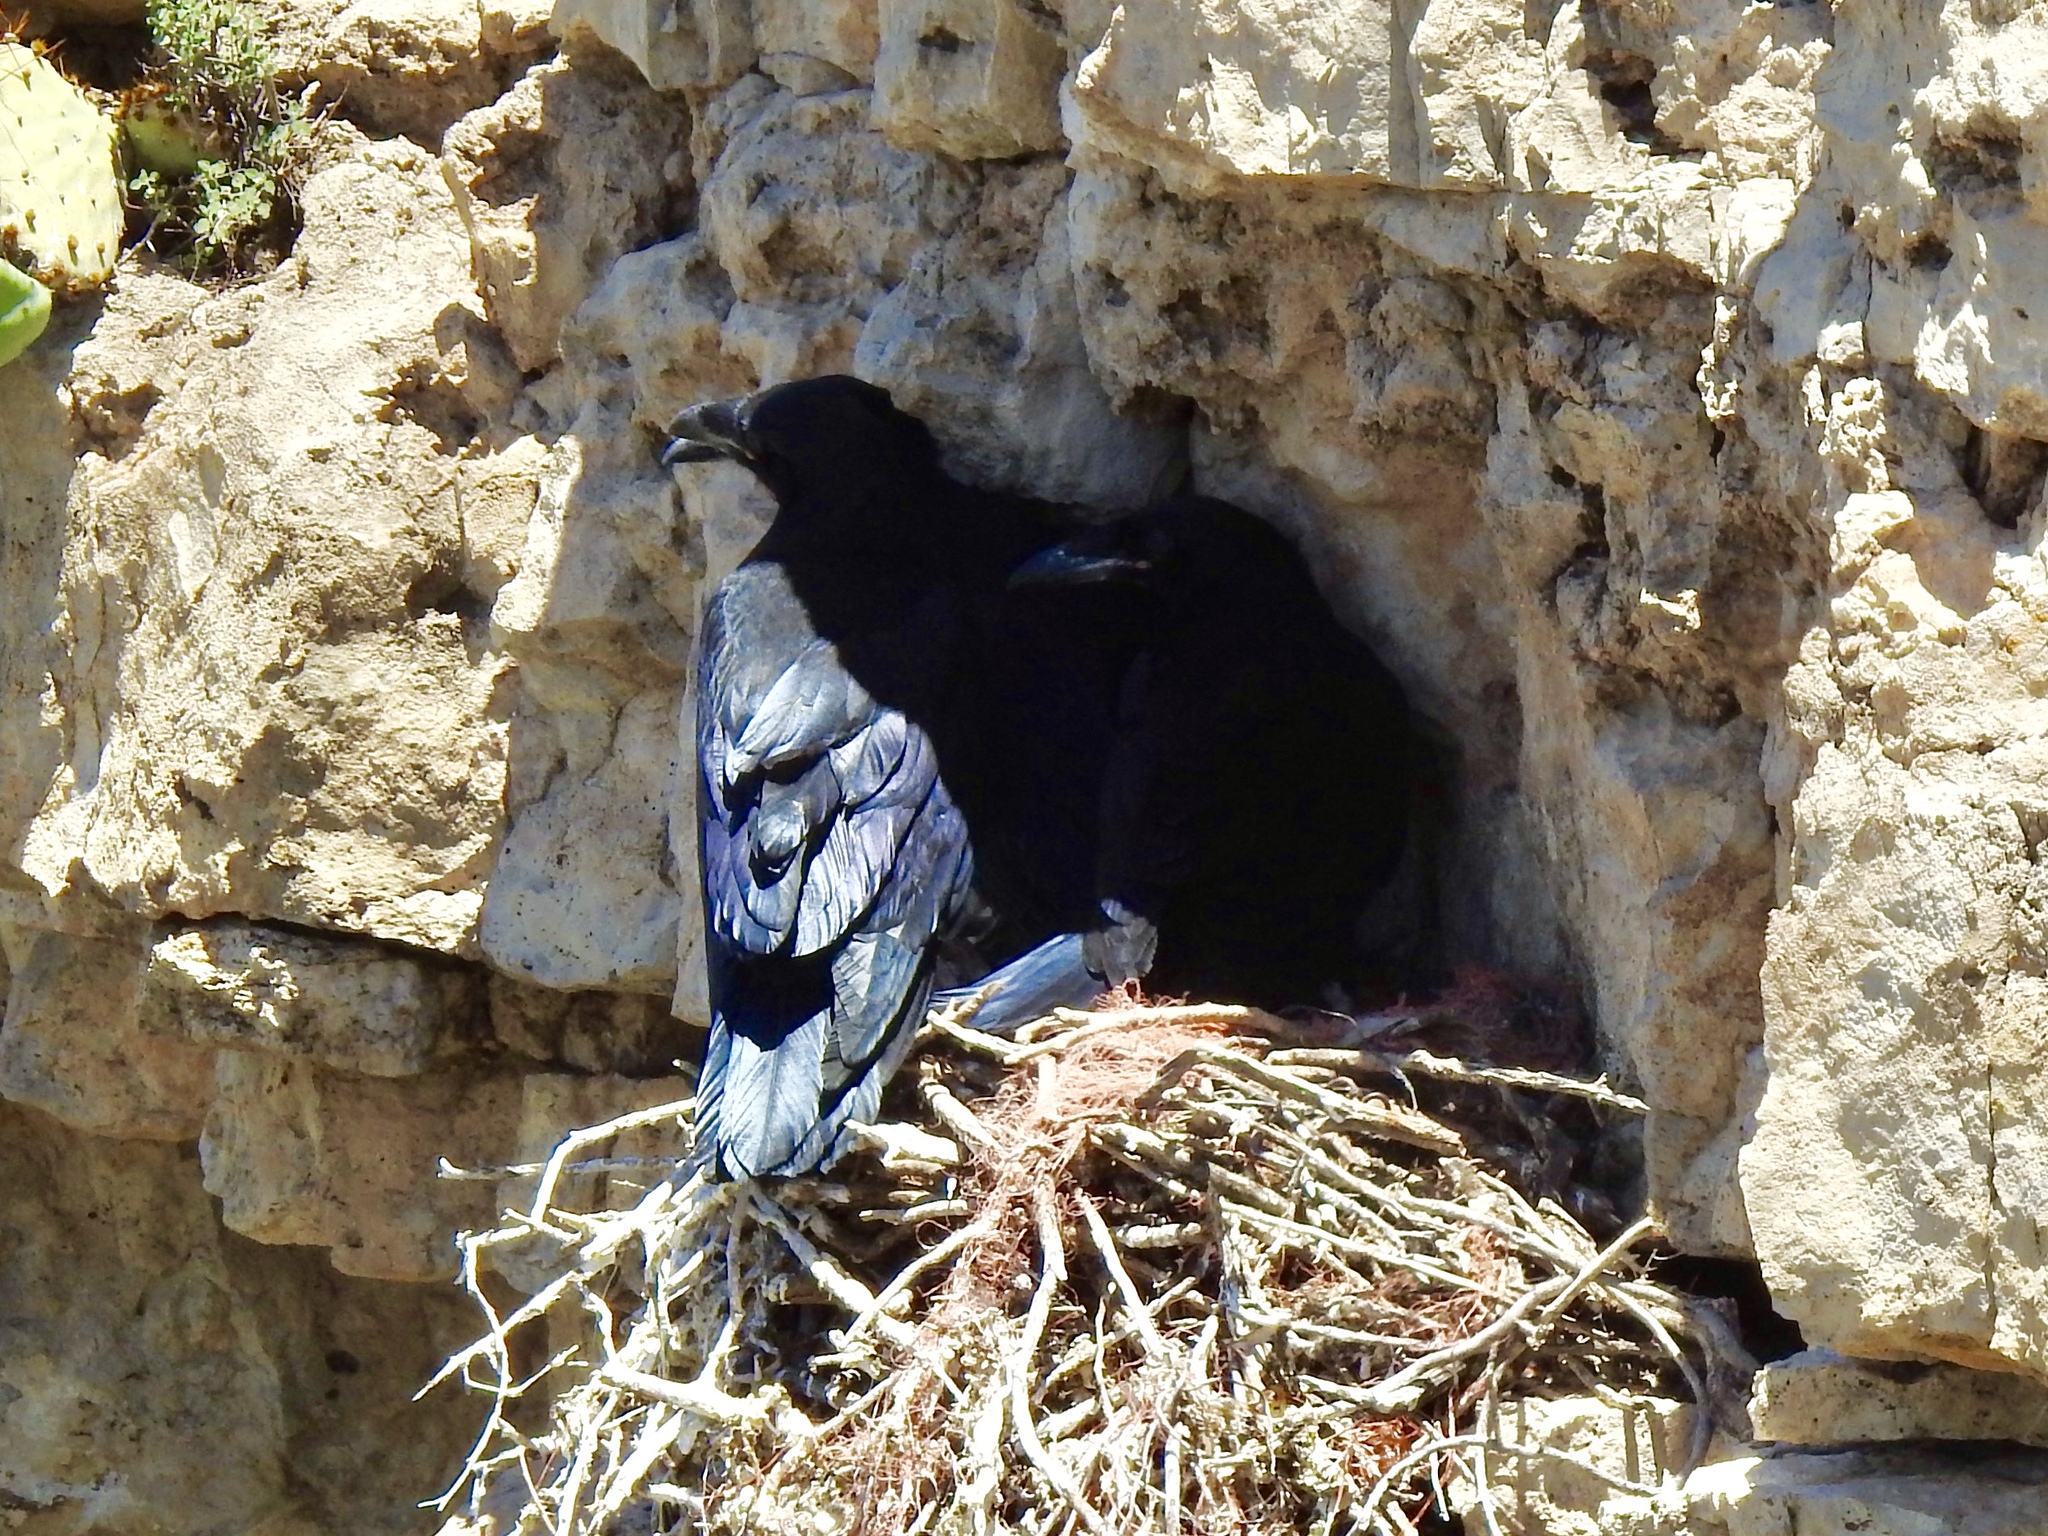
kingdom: Animalia
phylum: Chordata
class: Aves
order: Passeriformes
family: Corvidae
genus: Corvus
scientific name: Corvus corax
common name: Common raven
